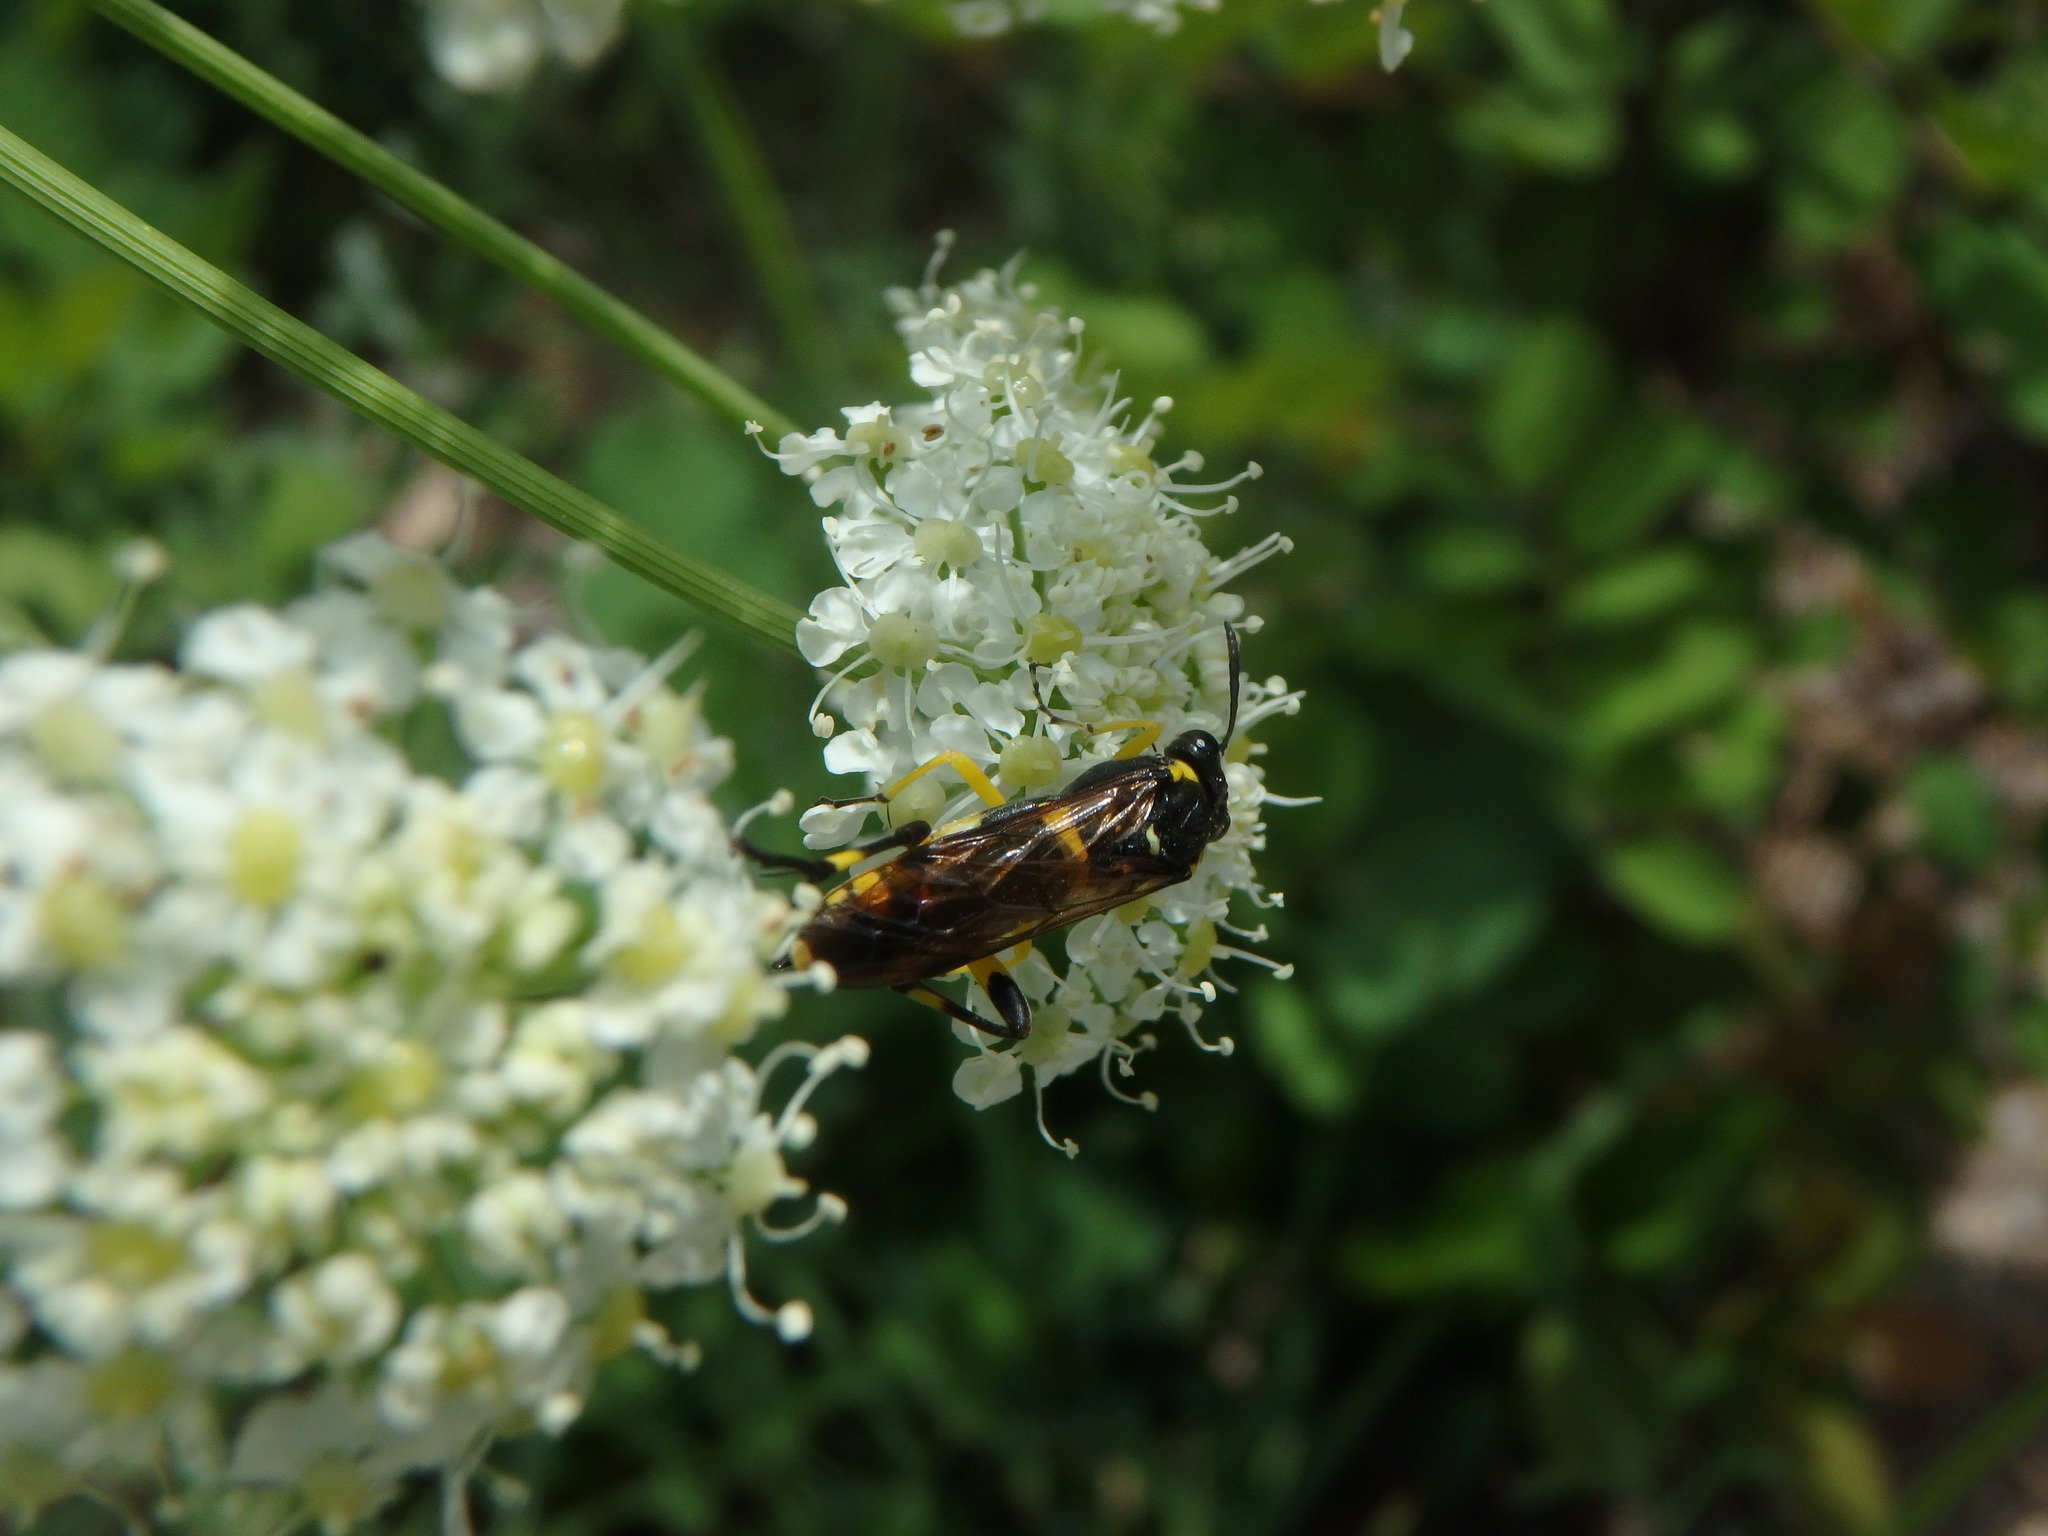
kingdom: Animalia
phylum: Arthropoda
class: Insecta
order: Hymenoptera
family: Tenthredinidae
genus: Macrophya
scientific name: Macrophya montana
